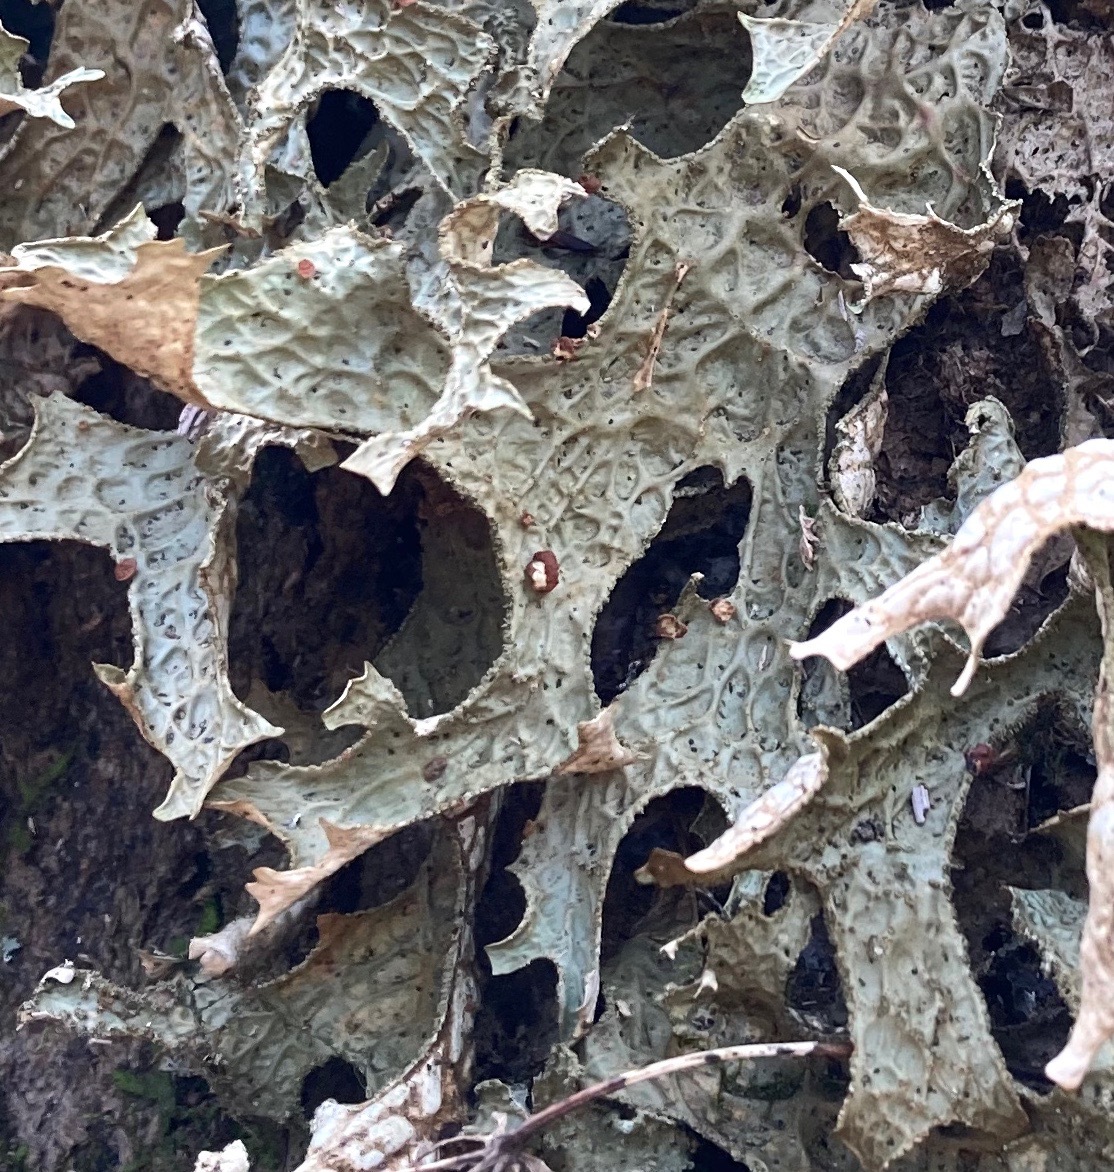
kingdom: Fungi
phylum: Ascomycota
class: Arthoniomycetes
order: Arthoniales
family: Lecanographaceae
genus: Plectocarpon
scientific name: Plectocarpon lichenum
